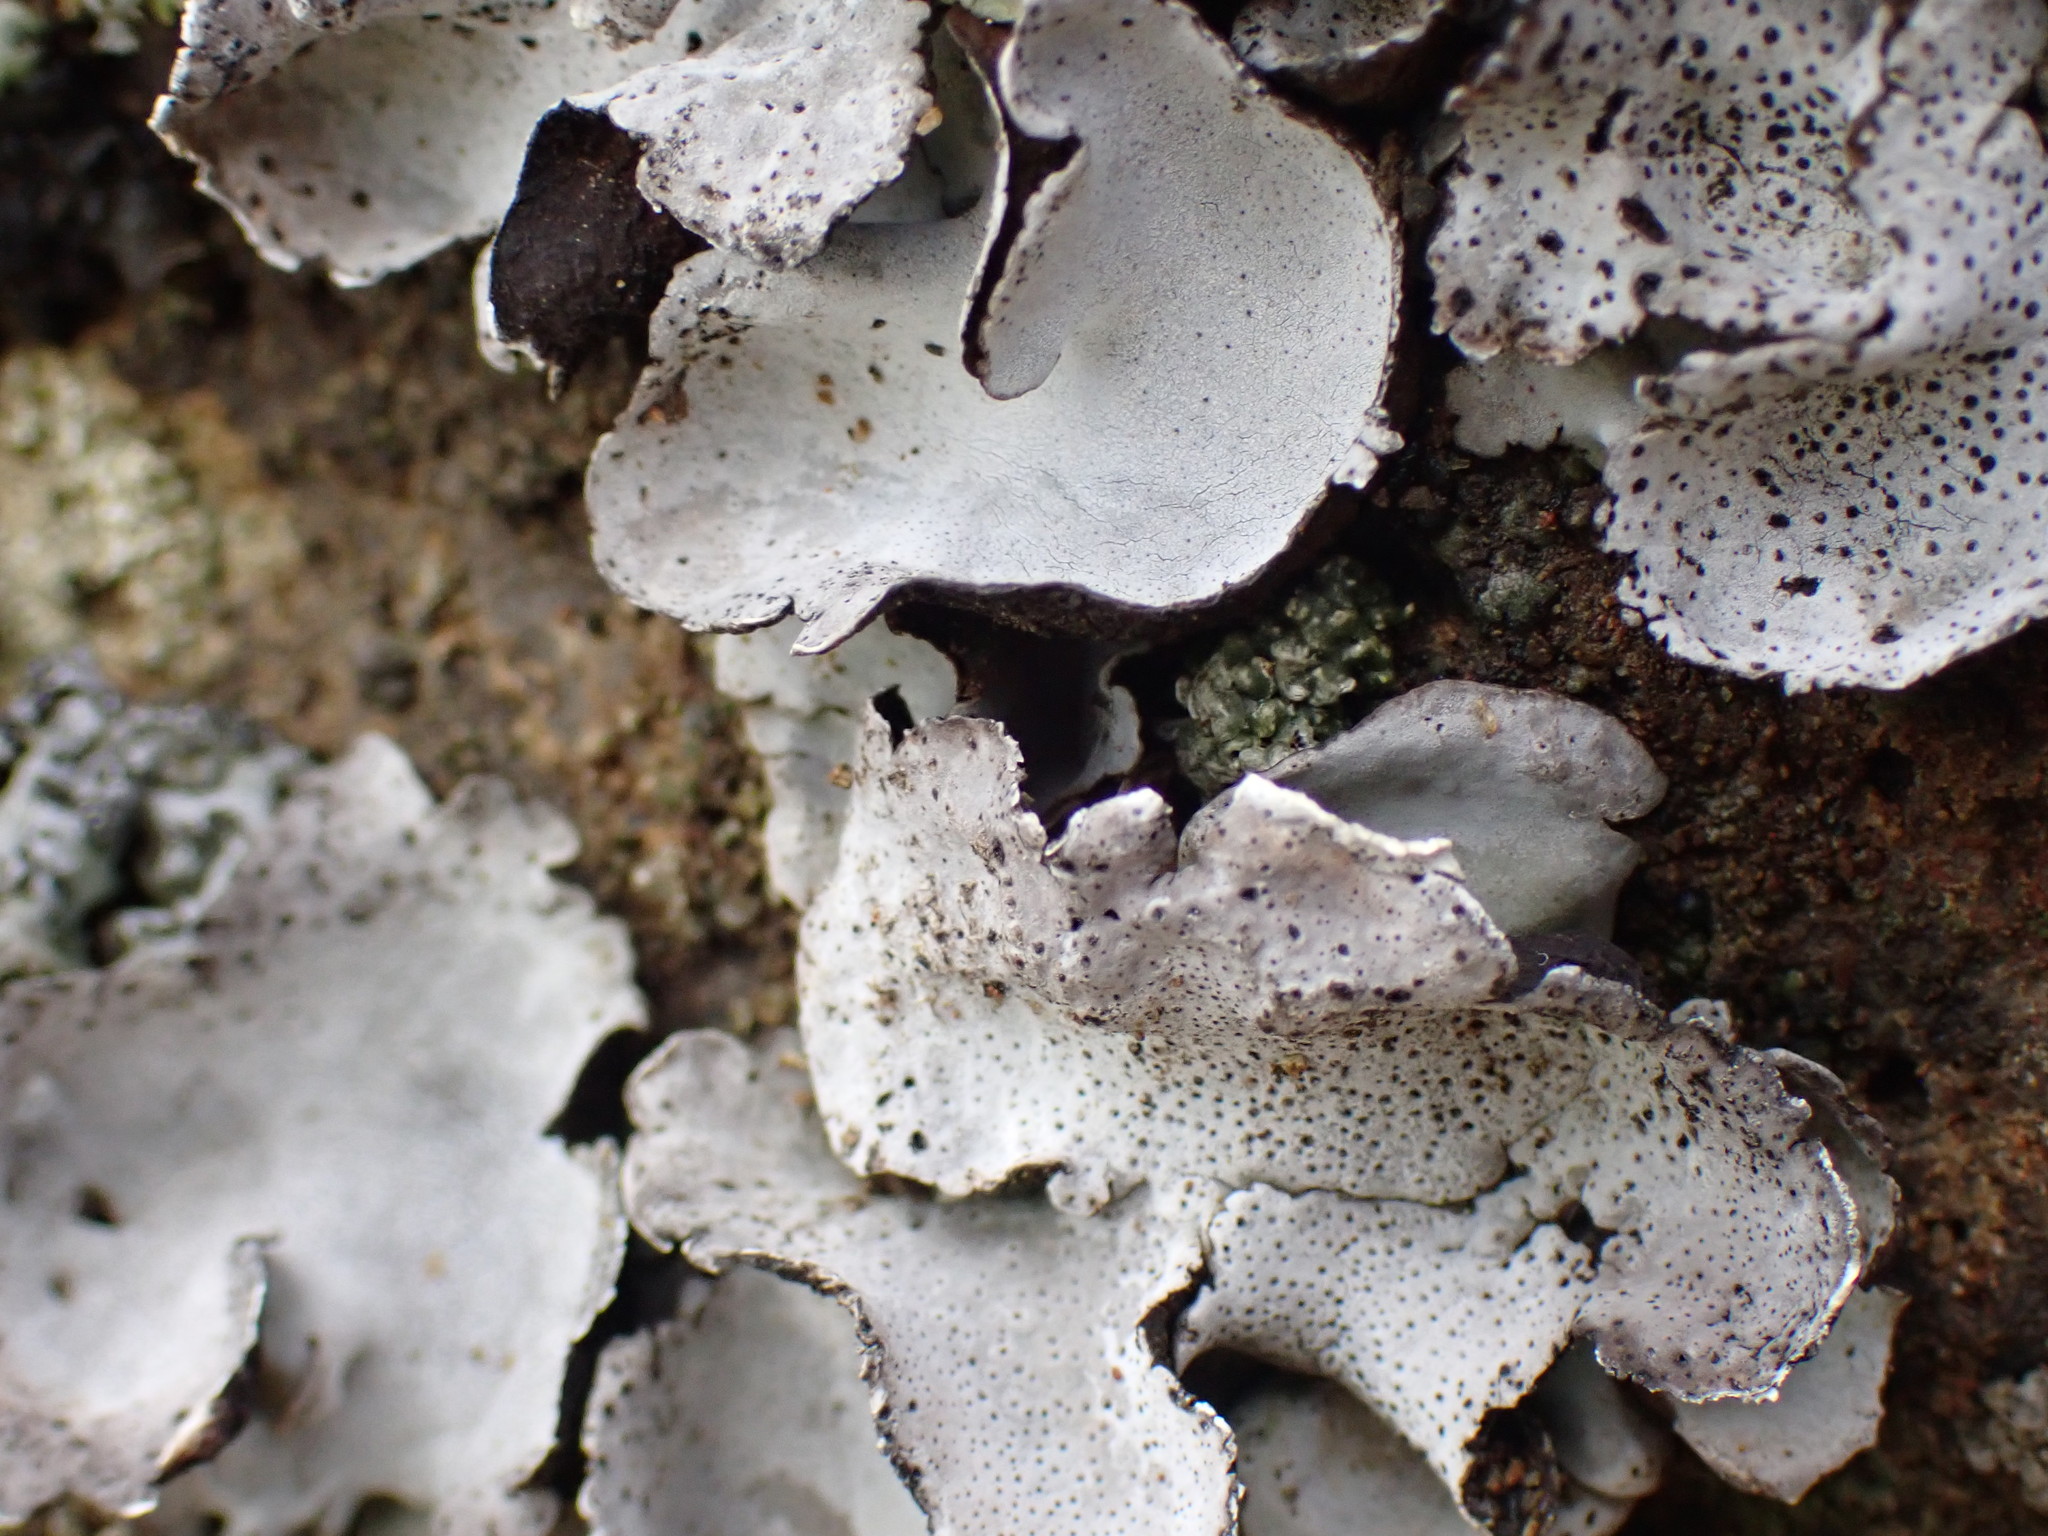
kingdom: Fungi
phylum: Ascomycota
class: Eurotiomycetes
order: Verrucariales
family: Verrucariaceae
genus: Dermatocarpon
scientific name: Dermatocarpon miniatum
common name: Leather lichen
